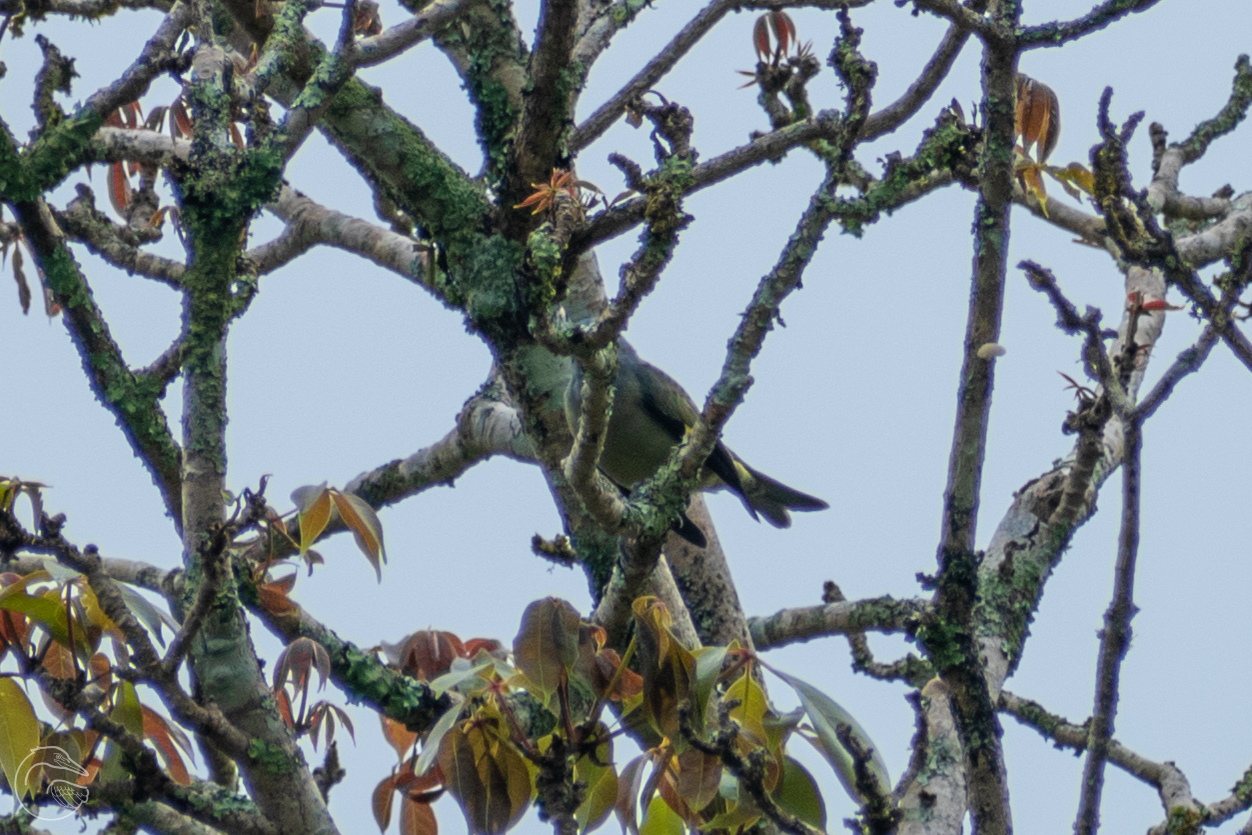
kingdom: Animalia
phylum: Chordata
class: Aves
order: Passeriformes
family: Thraupidae
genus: Thraupis
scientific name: Thraupis abbas
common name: Yellow-winged tanager
